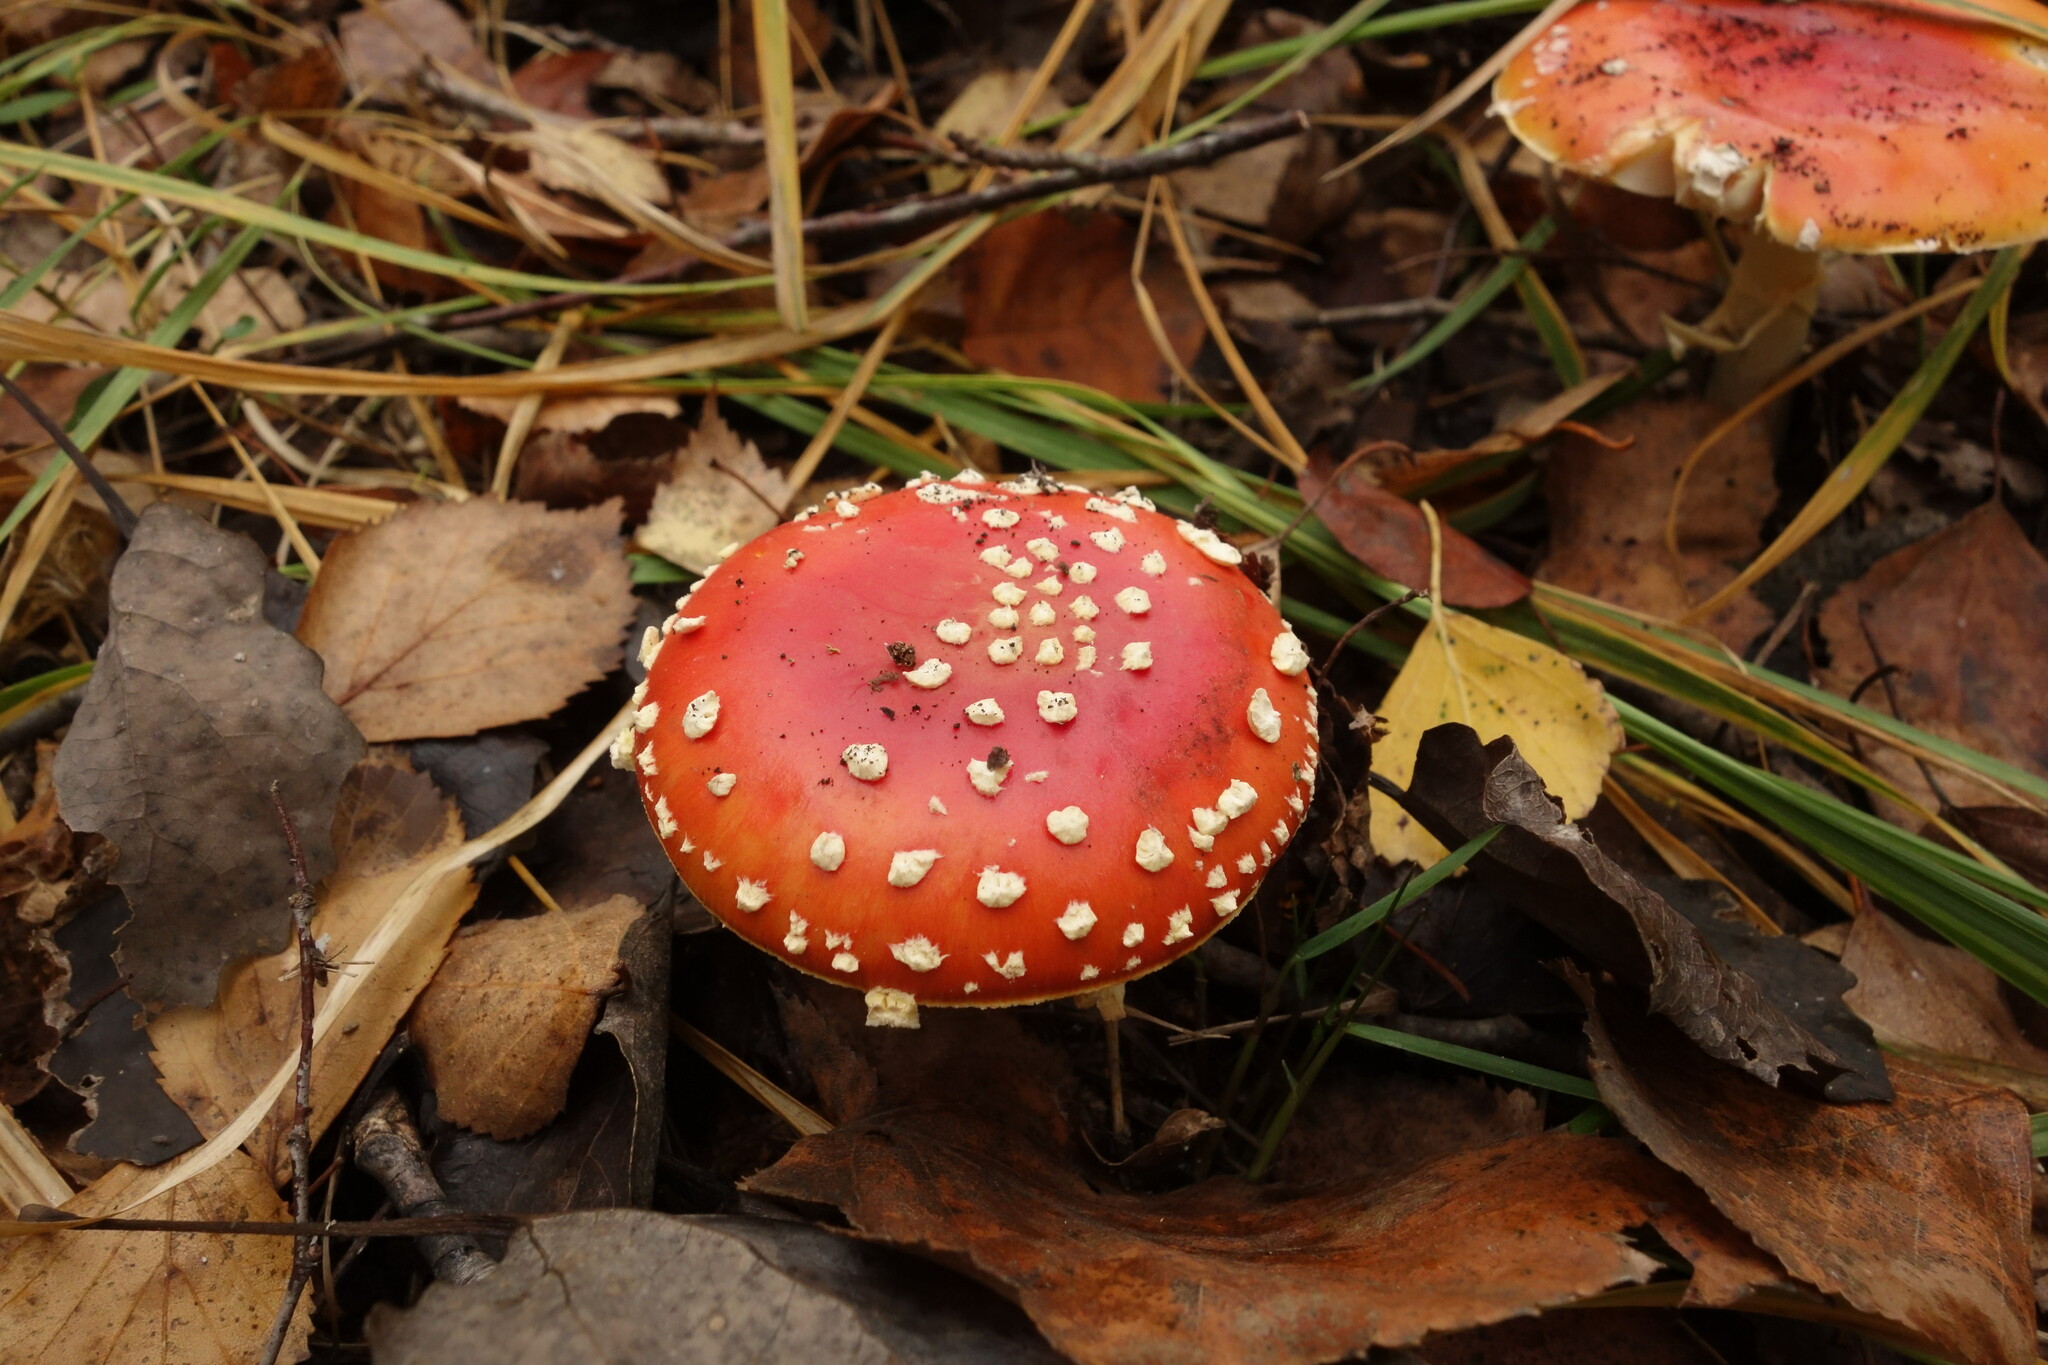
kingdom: Fungi
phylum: Basidiomycota
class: Agaricomycetes
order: Agaricales
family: Amanitaceae
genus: Amanita
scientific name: Amanita muscaria
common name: Fly agaric
